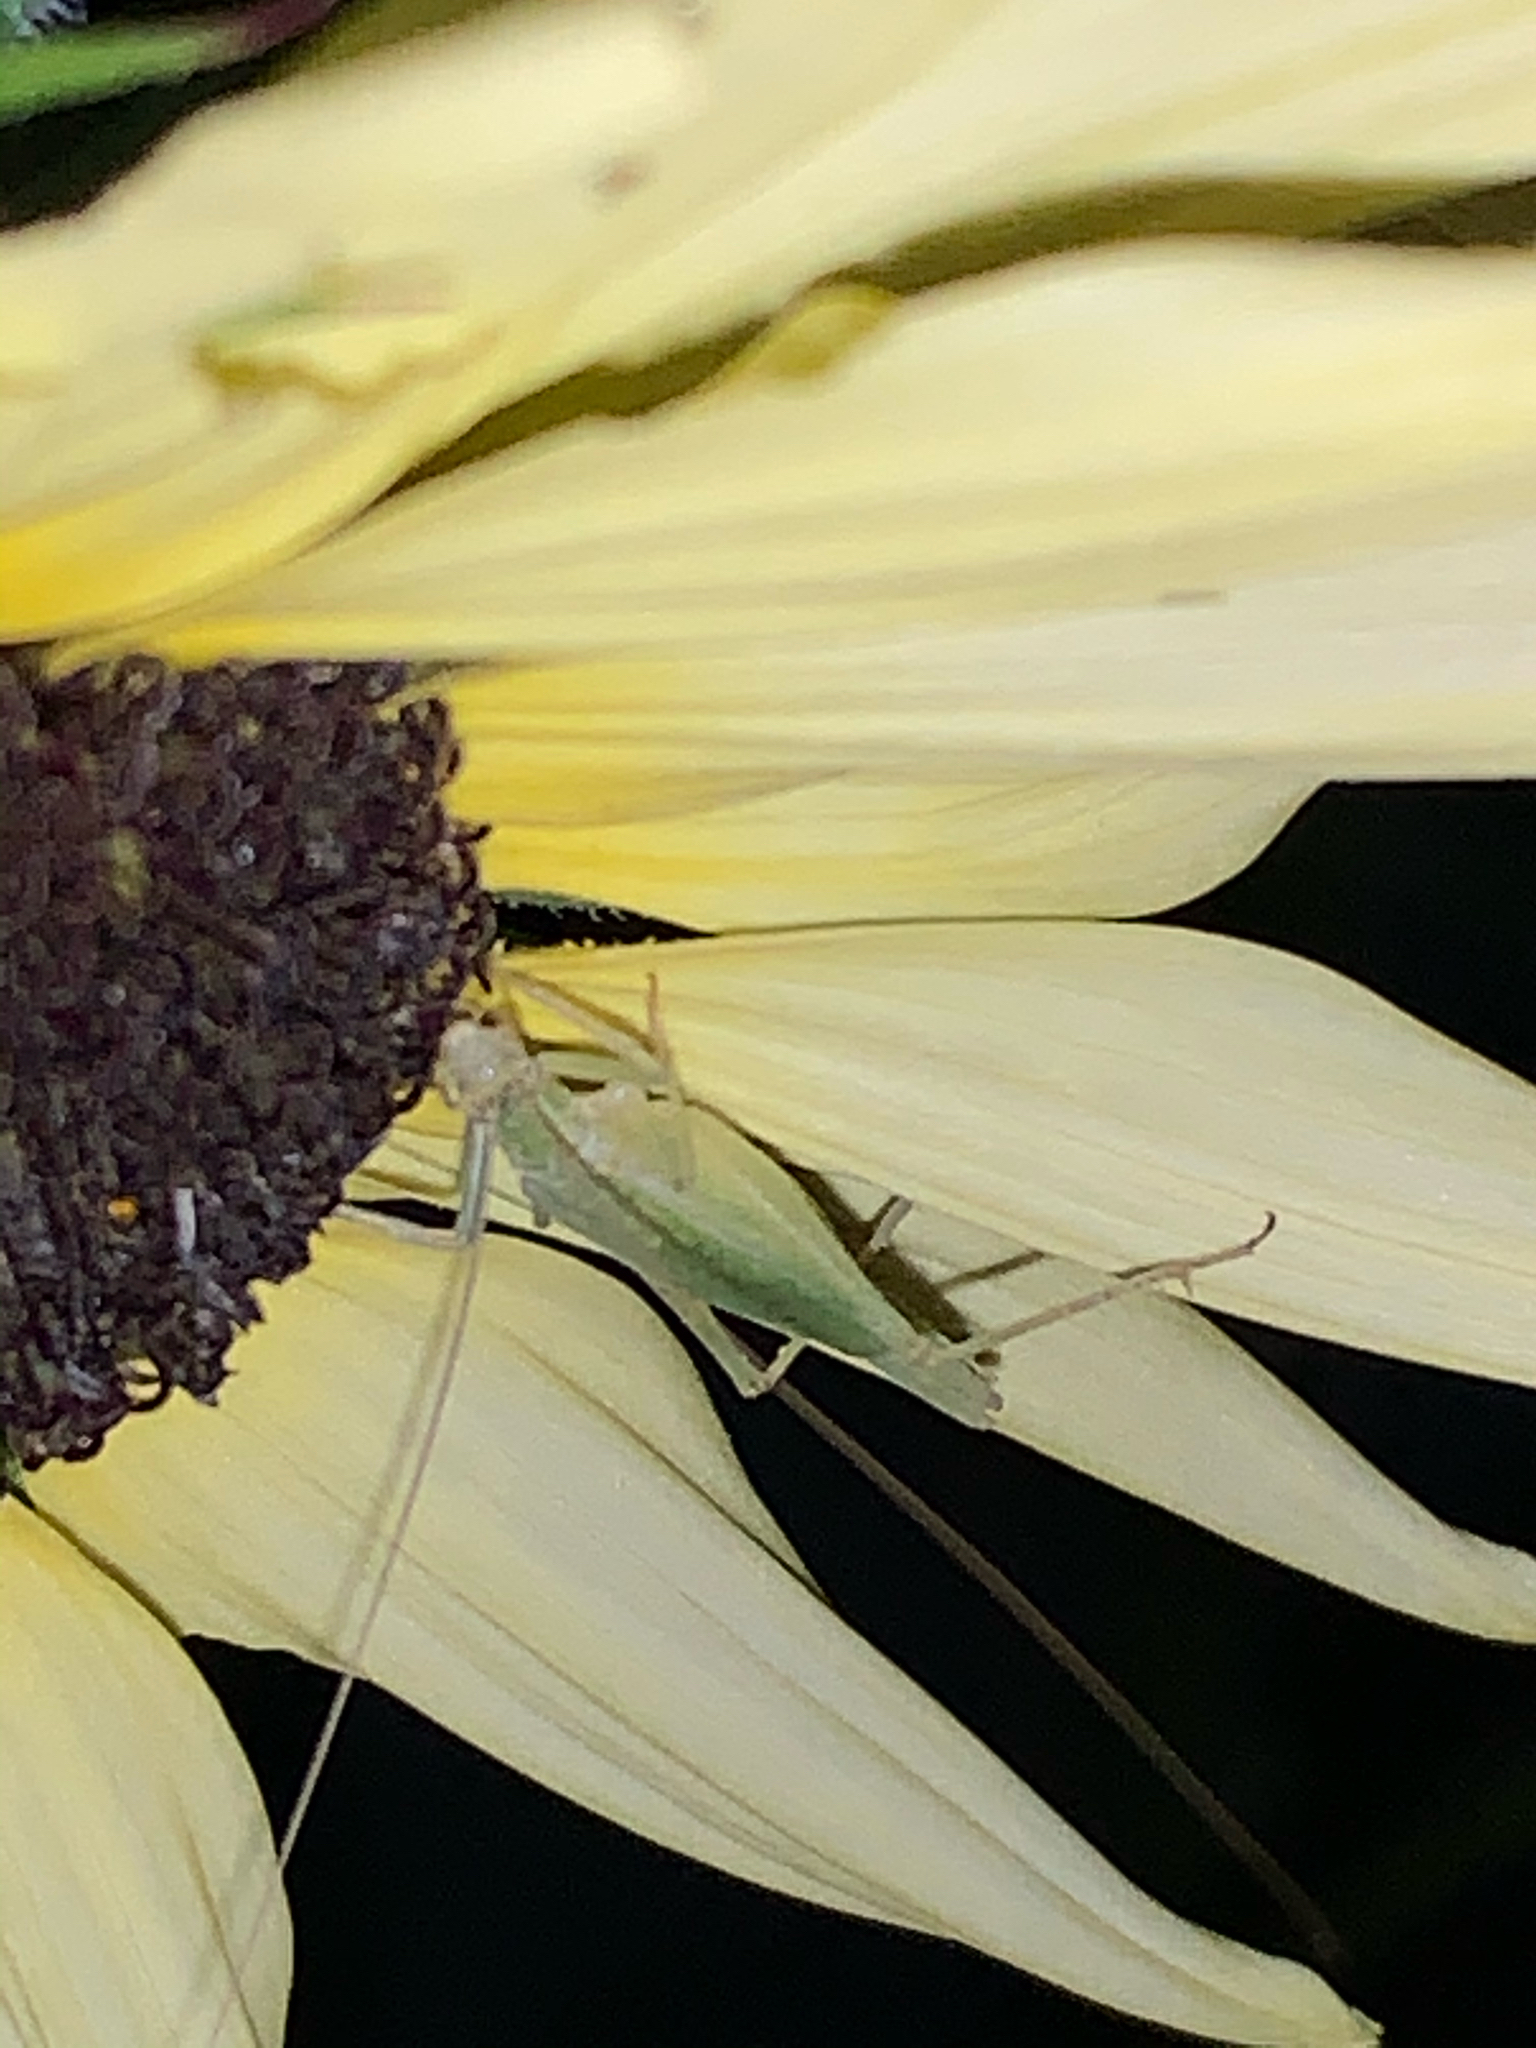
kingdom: Animalia
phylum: Arthropoda
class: Insecta
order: Orthoptera
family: Gryllidae
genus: Oecanthus
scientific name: Oecanthus
